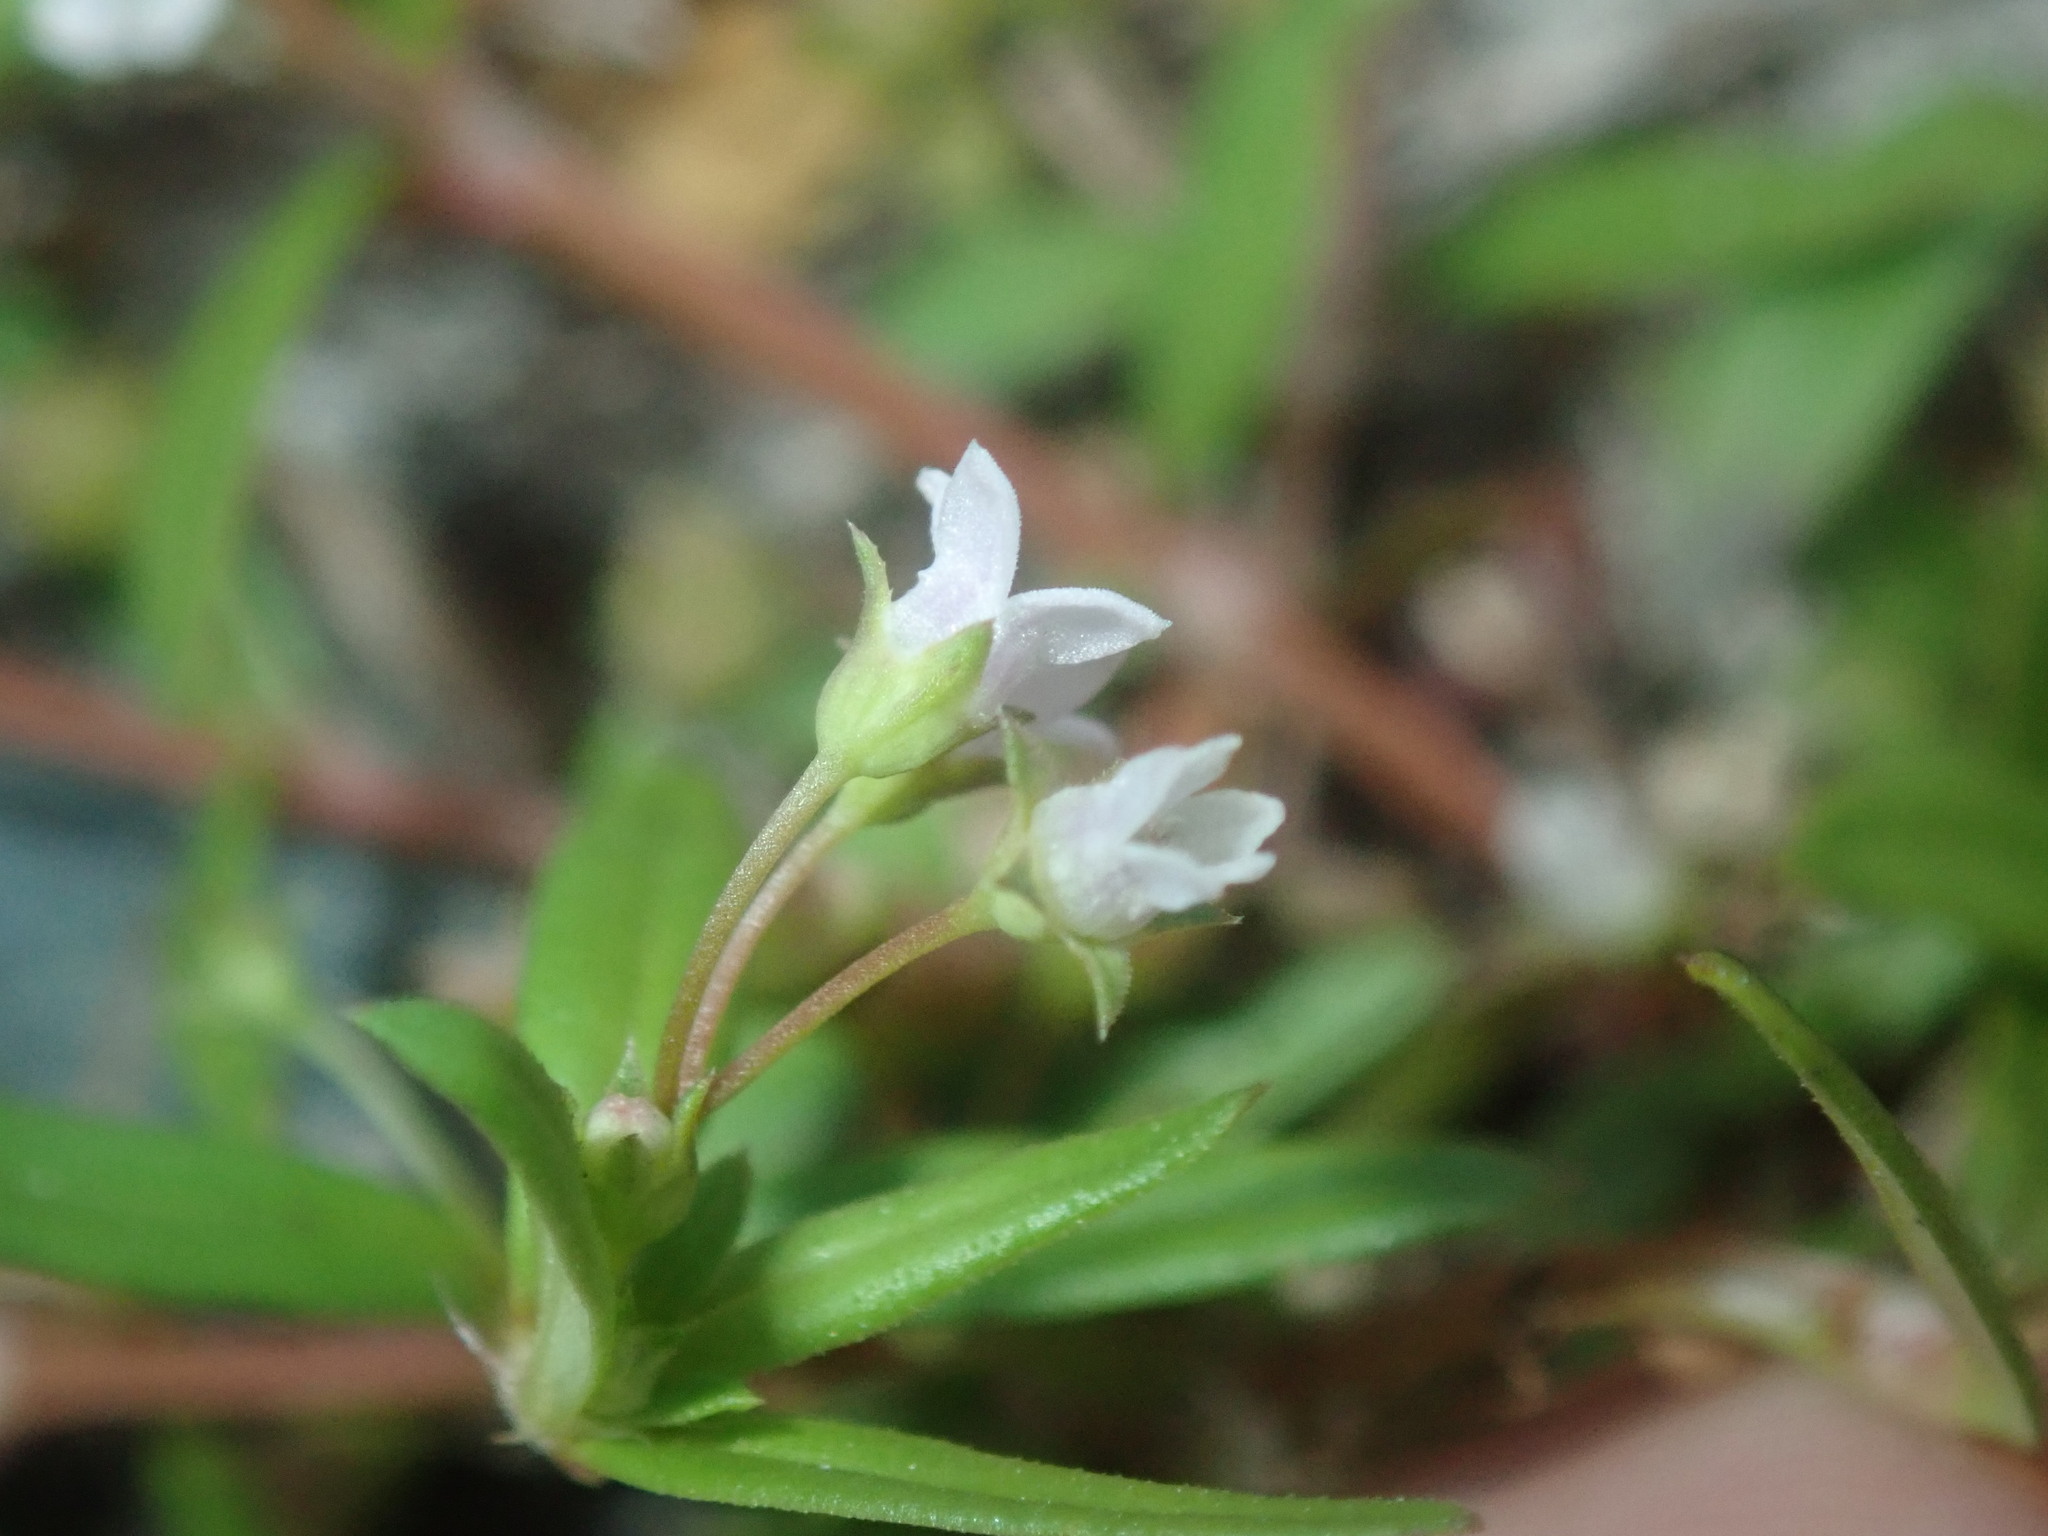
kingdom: Plantae
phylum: Tracheophyta
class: Magnoliopsida
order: Gentianales
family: Rubiaceae
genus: Oldenlandia
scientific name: Oldenlandia corymbosa
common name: Flat-top mille graines
